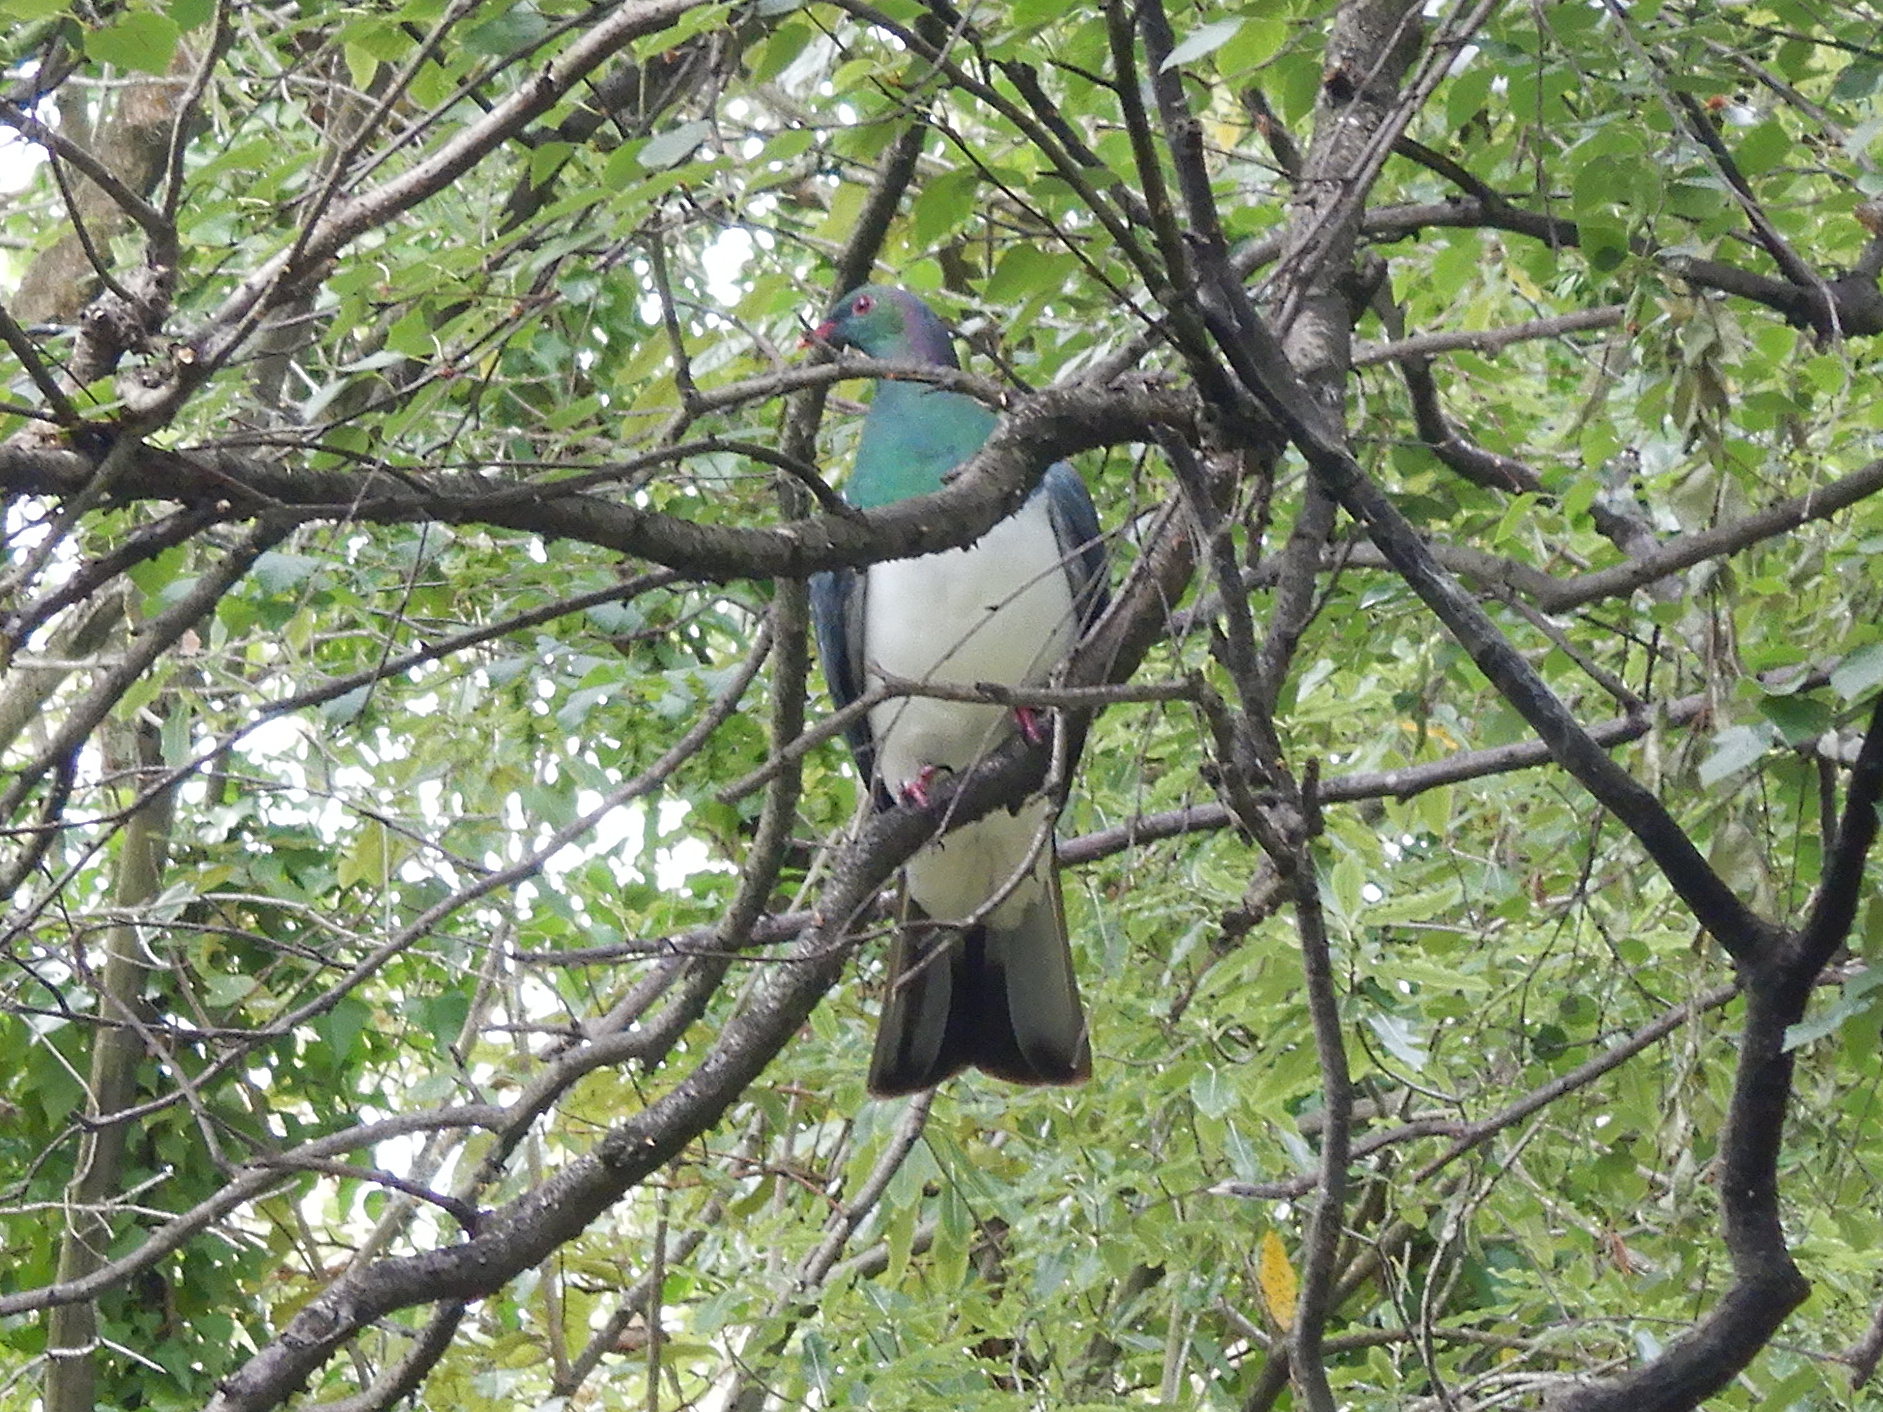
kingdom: Animalia
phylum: Chordata
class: Aves
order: Columbiformes
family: Columbidae
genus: Hemiphaga
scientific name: Hemiphaga novaeseelandiae
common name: New zealand pigeon
